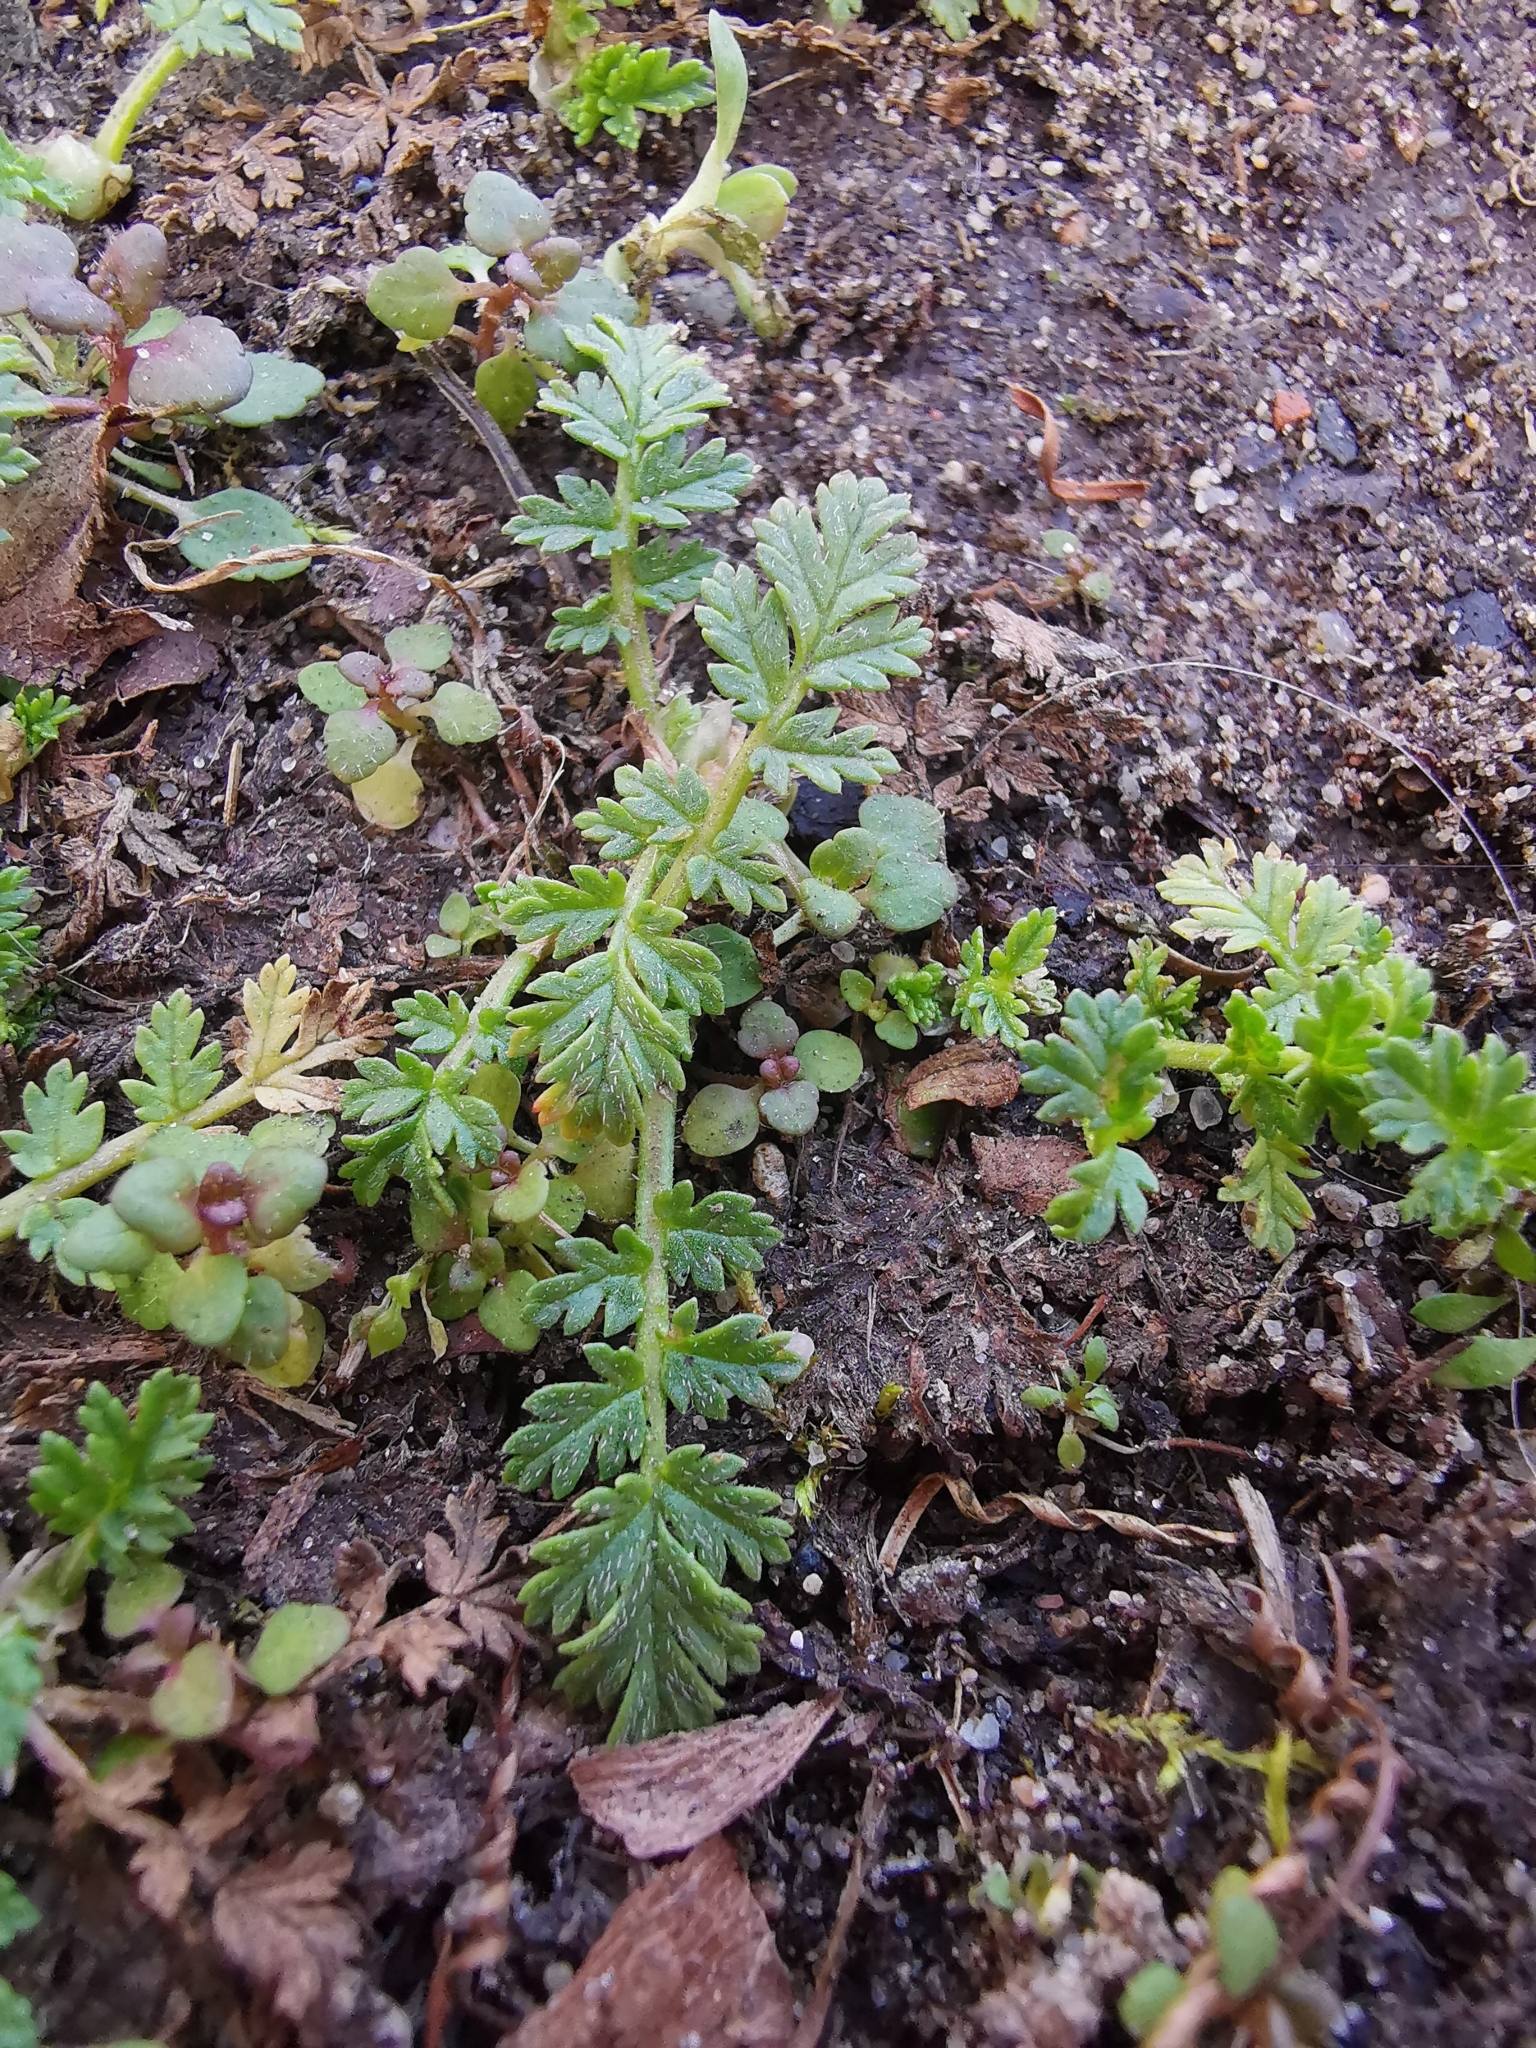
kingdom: Plantae
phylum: Tracheophyta
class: Magnoliopsida
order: Geraniales
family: Geraniaceae
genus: Erodium
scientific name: Erodium cicutarium
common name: Common stork's-bill
